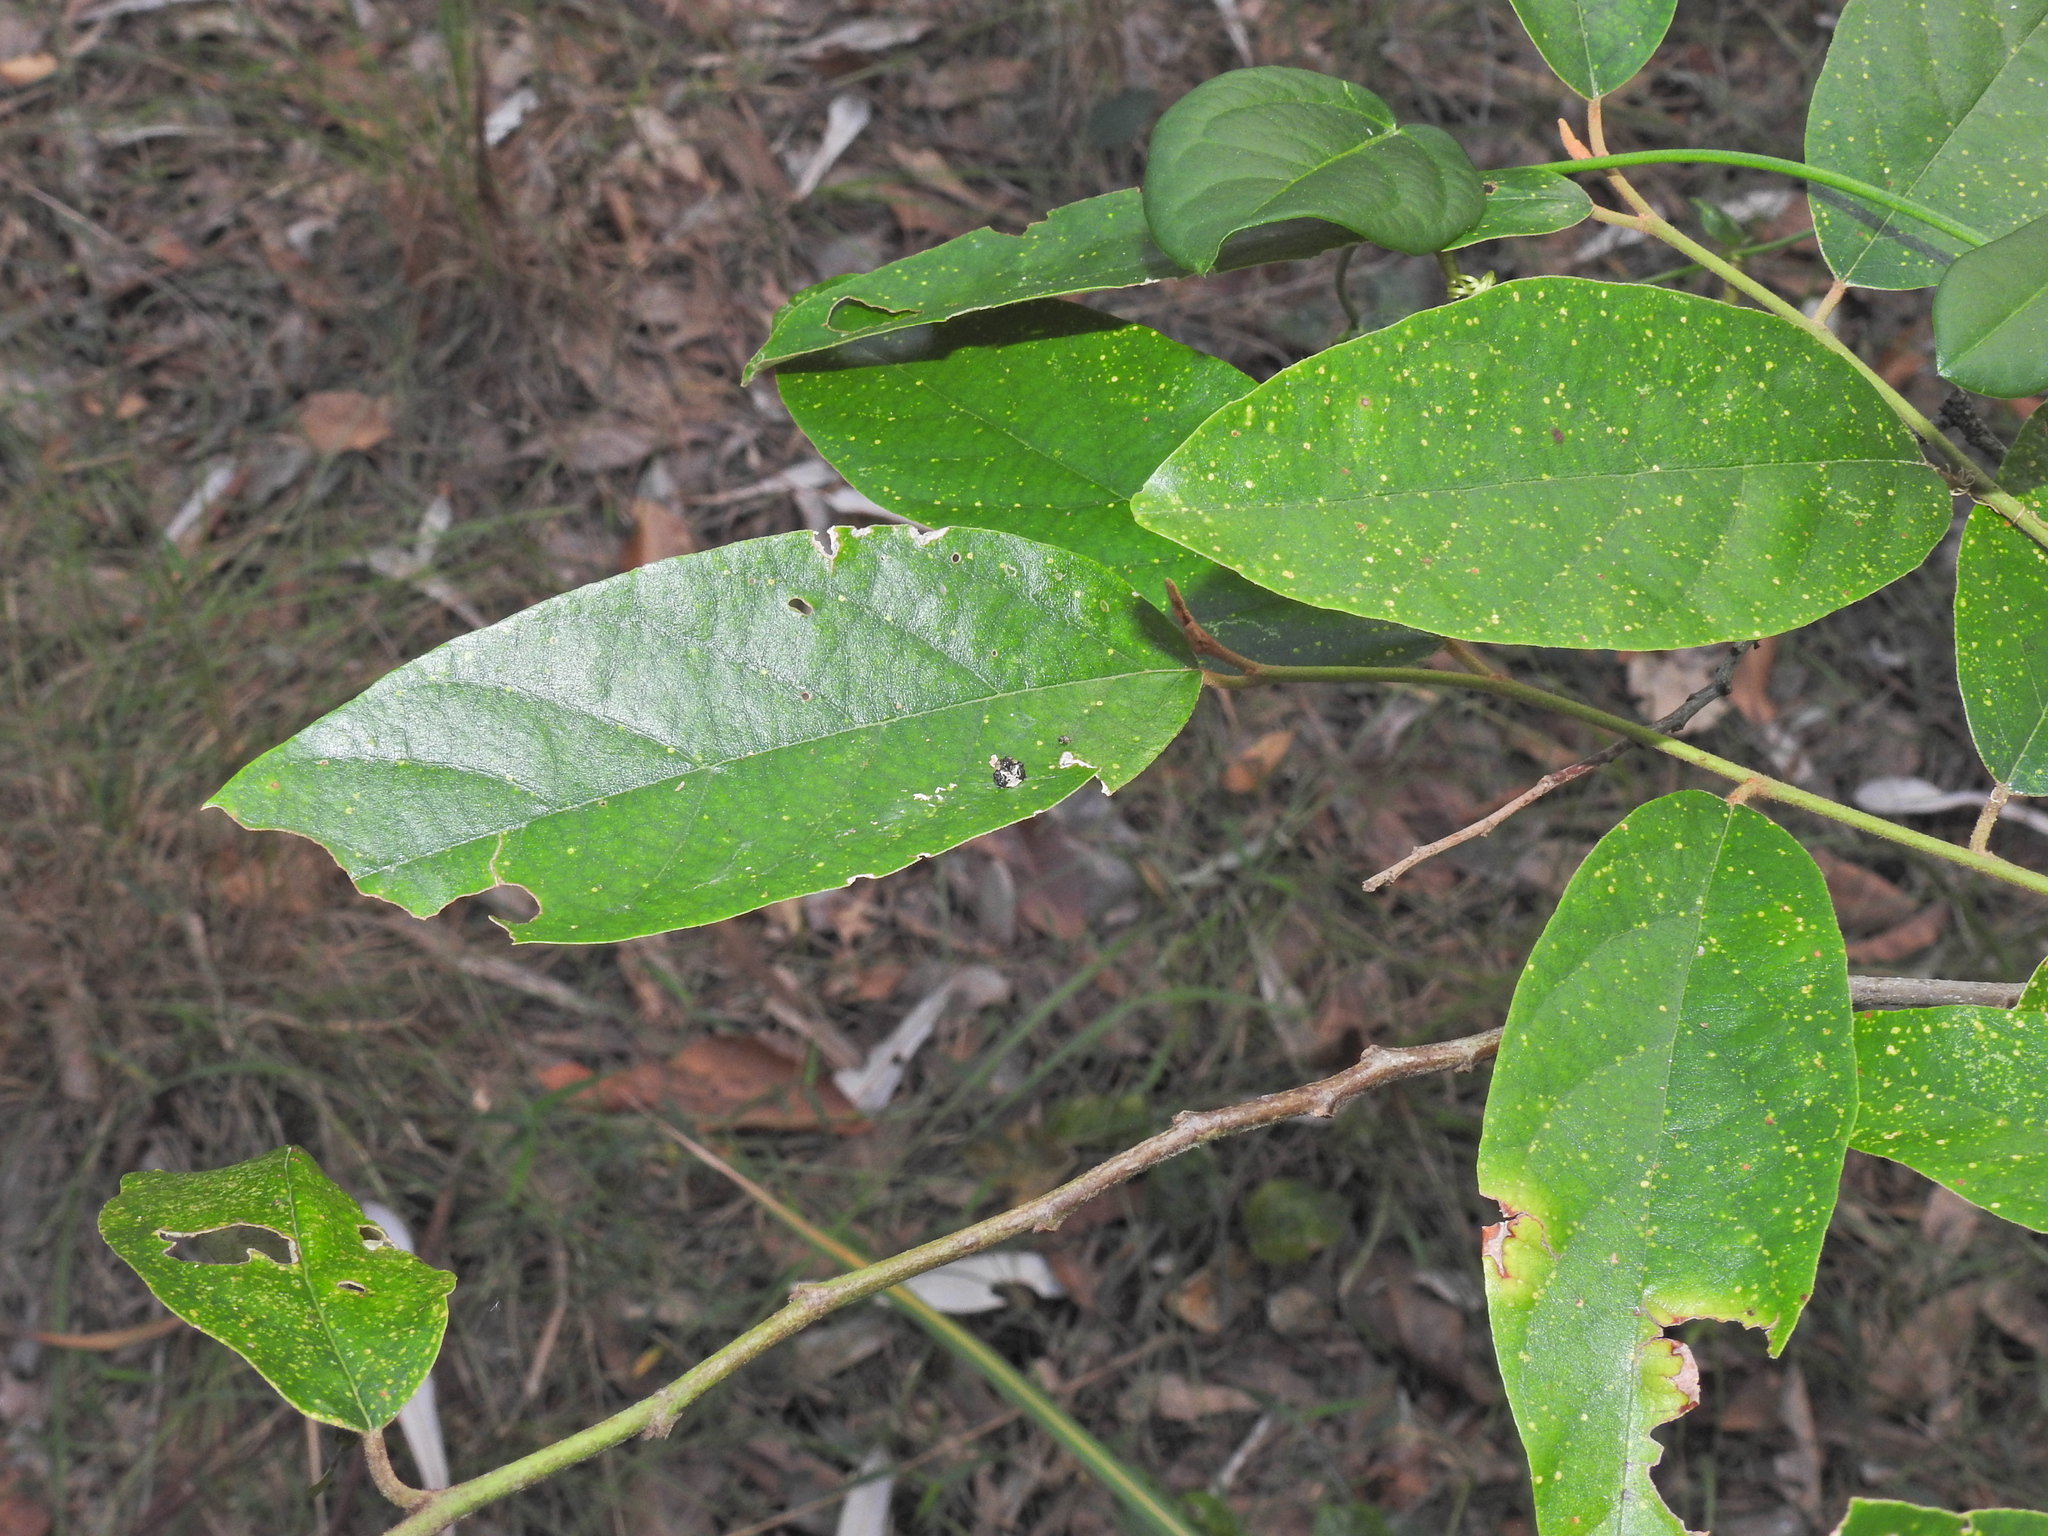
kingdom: Animalia
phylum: Arthropoda
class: Arachnida
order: Araneae
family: Arkyidae
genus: Arkys
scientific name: Arkys curtulus
